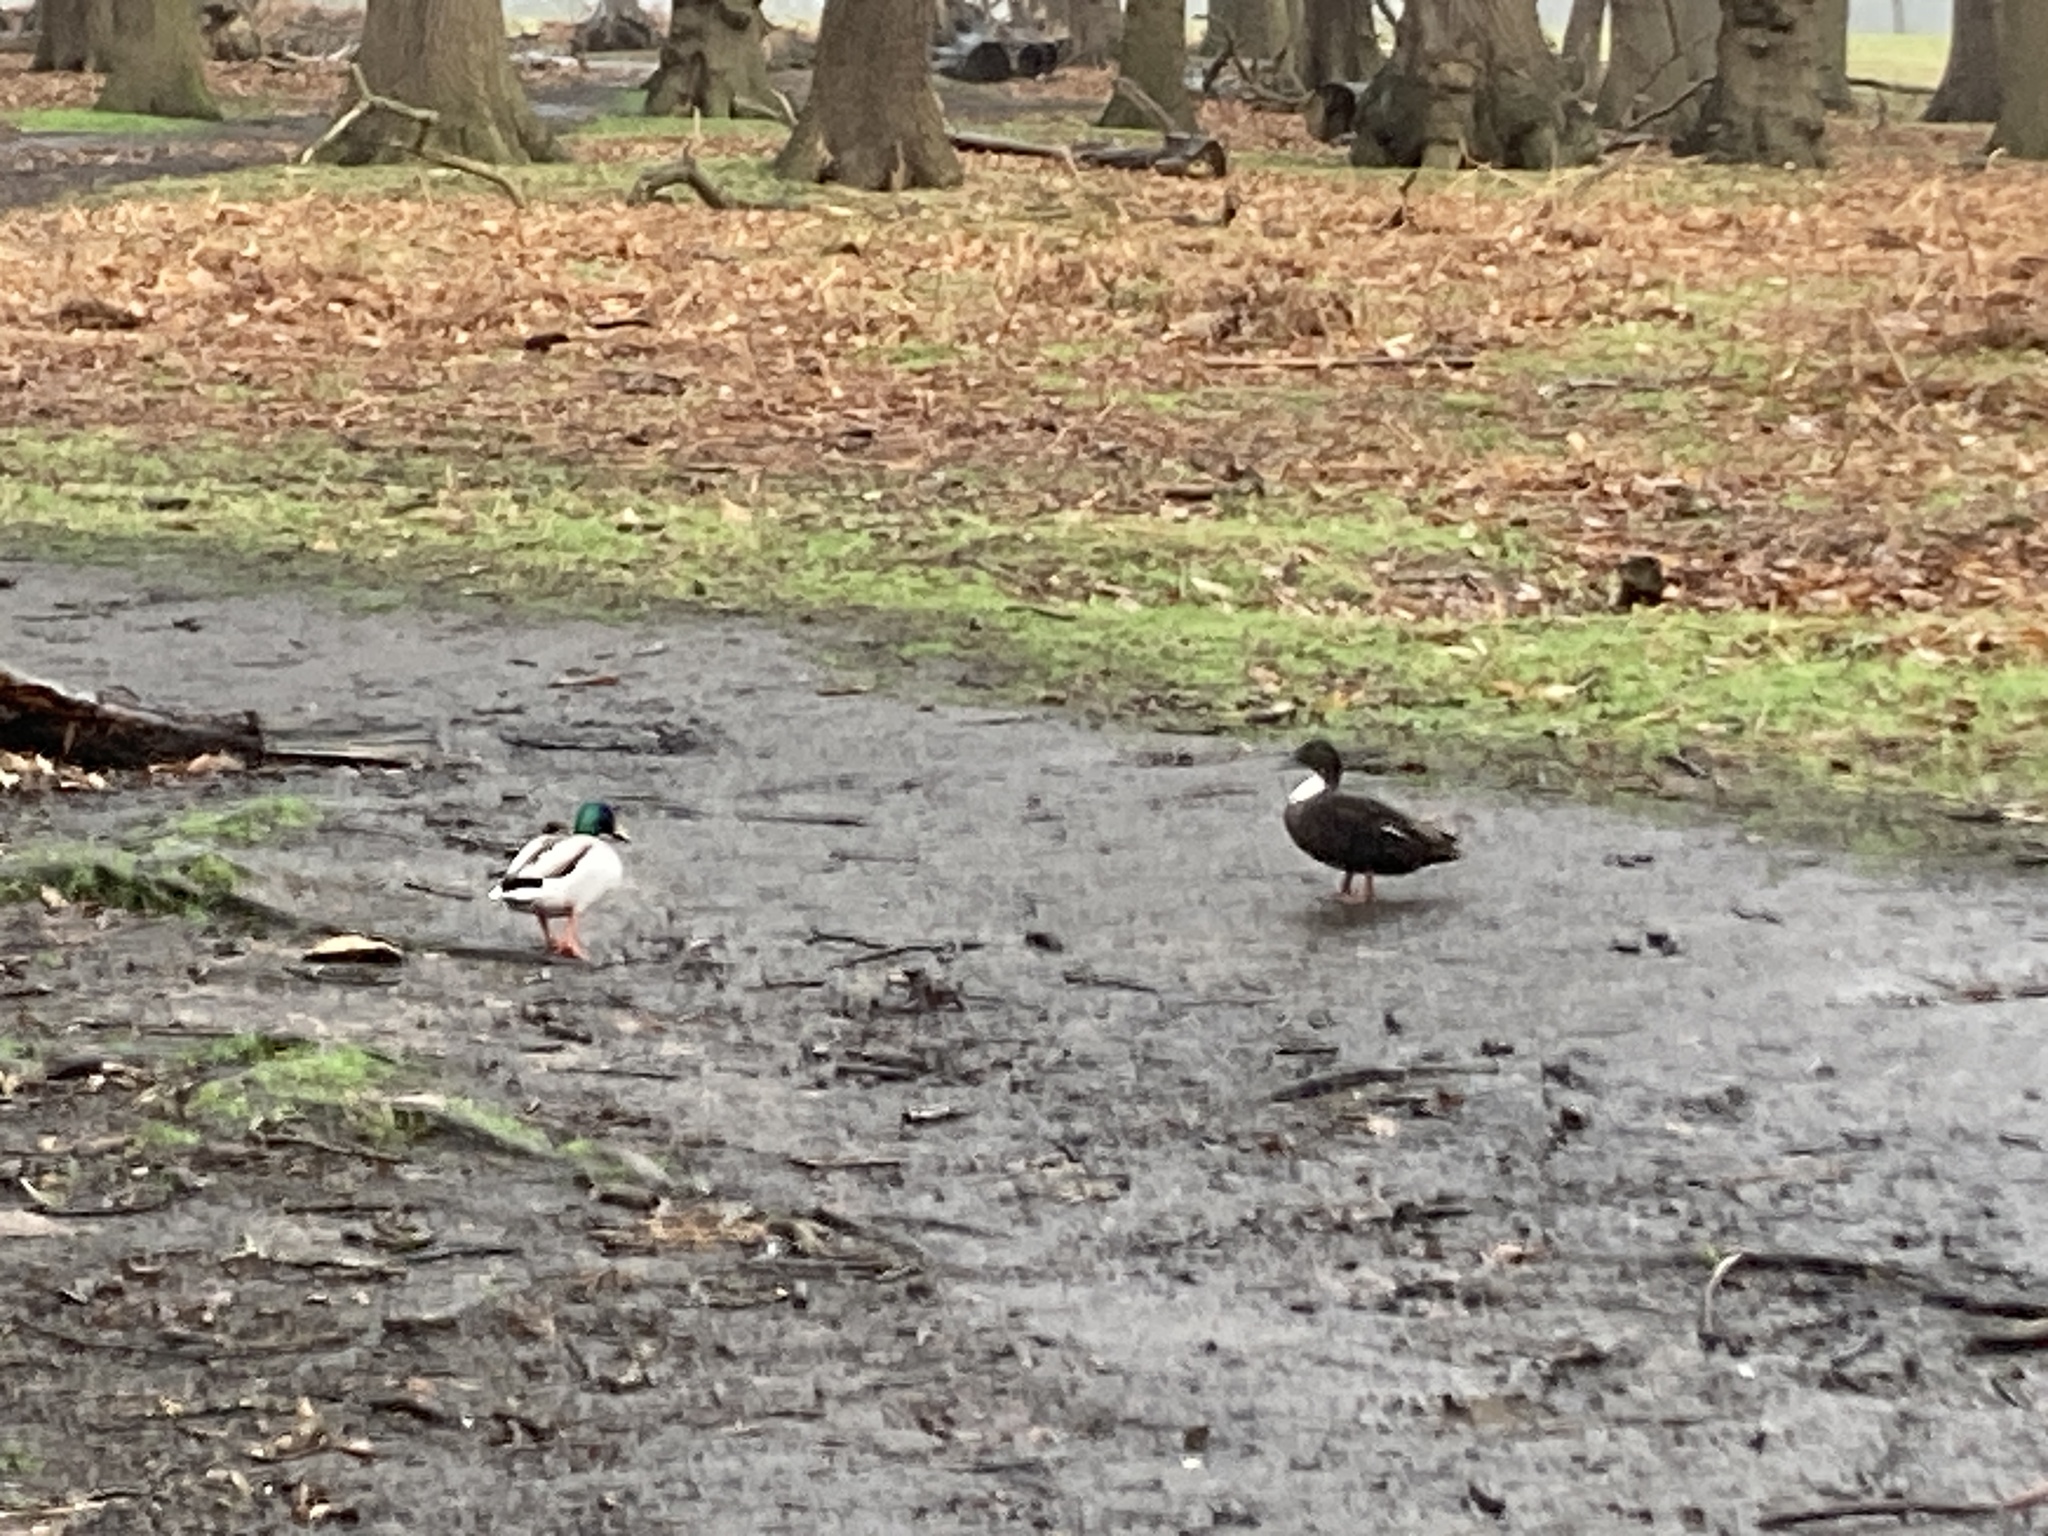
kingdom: Animalia
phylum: Chordata
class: Aves
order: Anseriformes
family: Anatidae
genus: Anas
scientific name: Anas platyrhynchos
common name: Mallard
